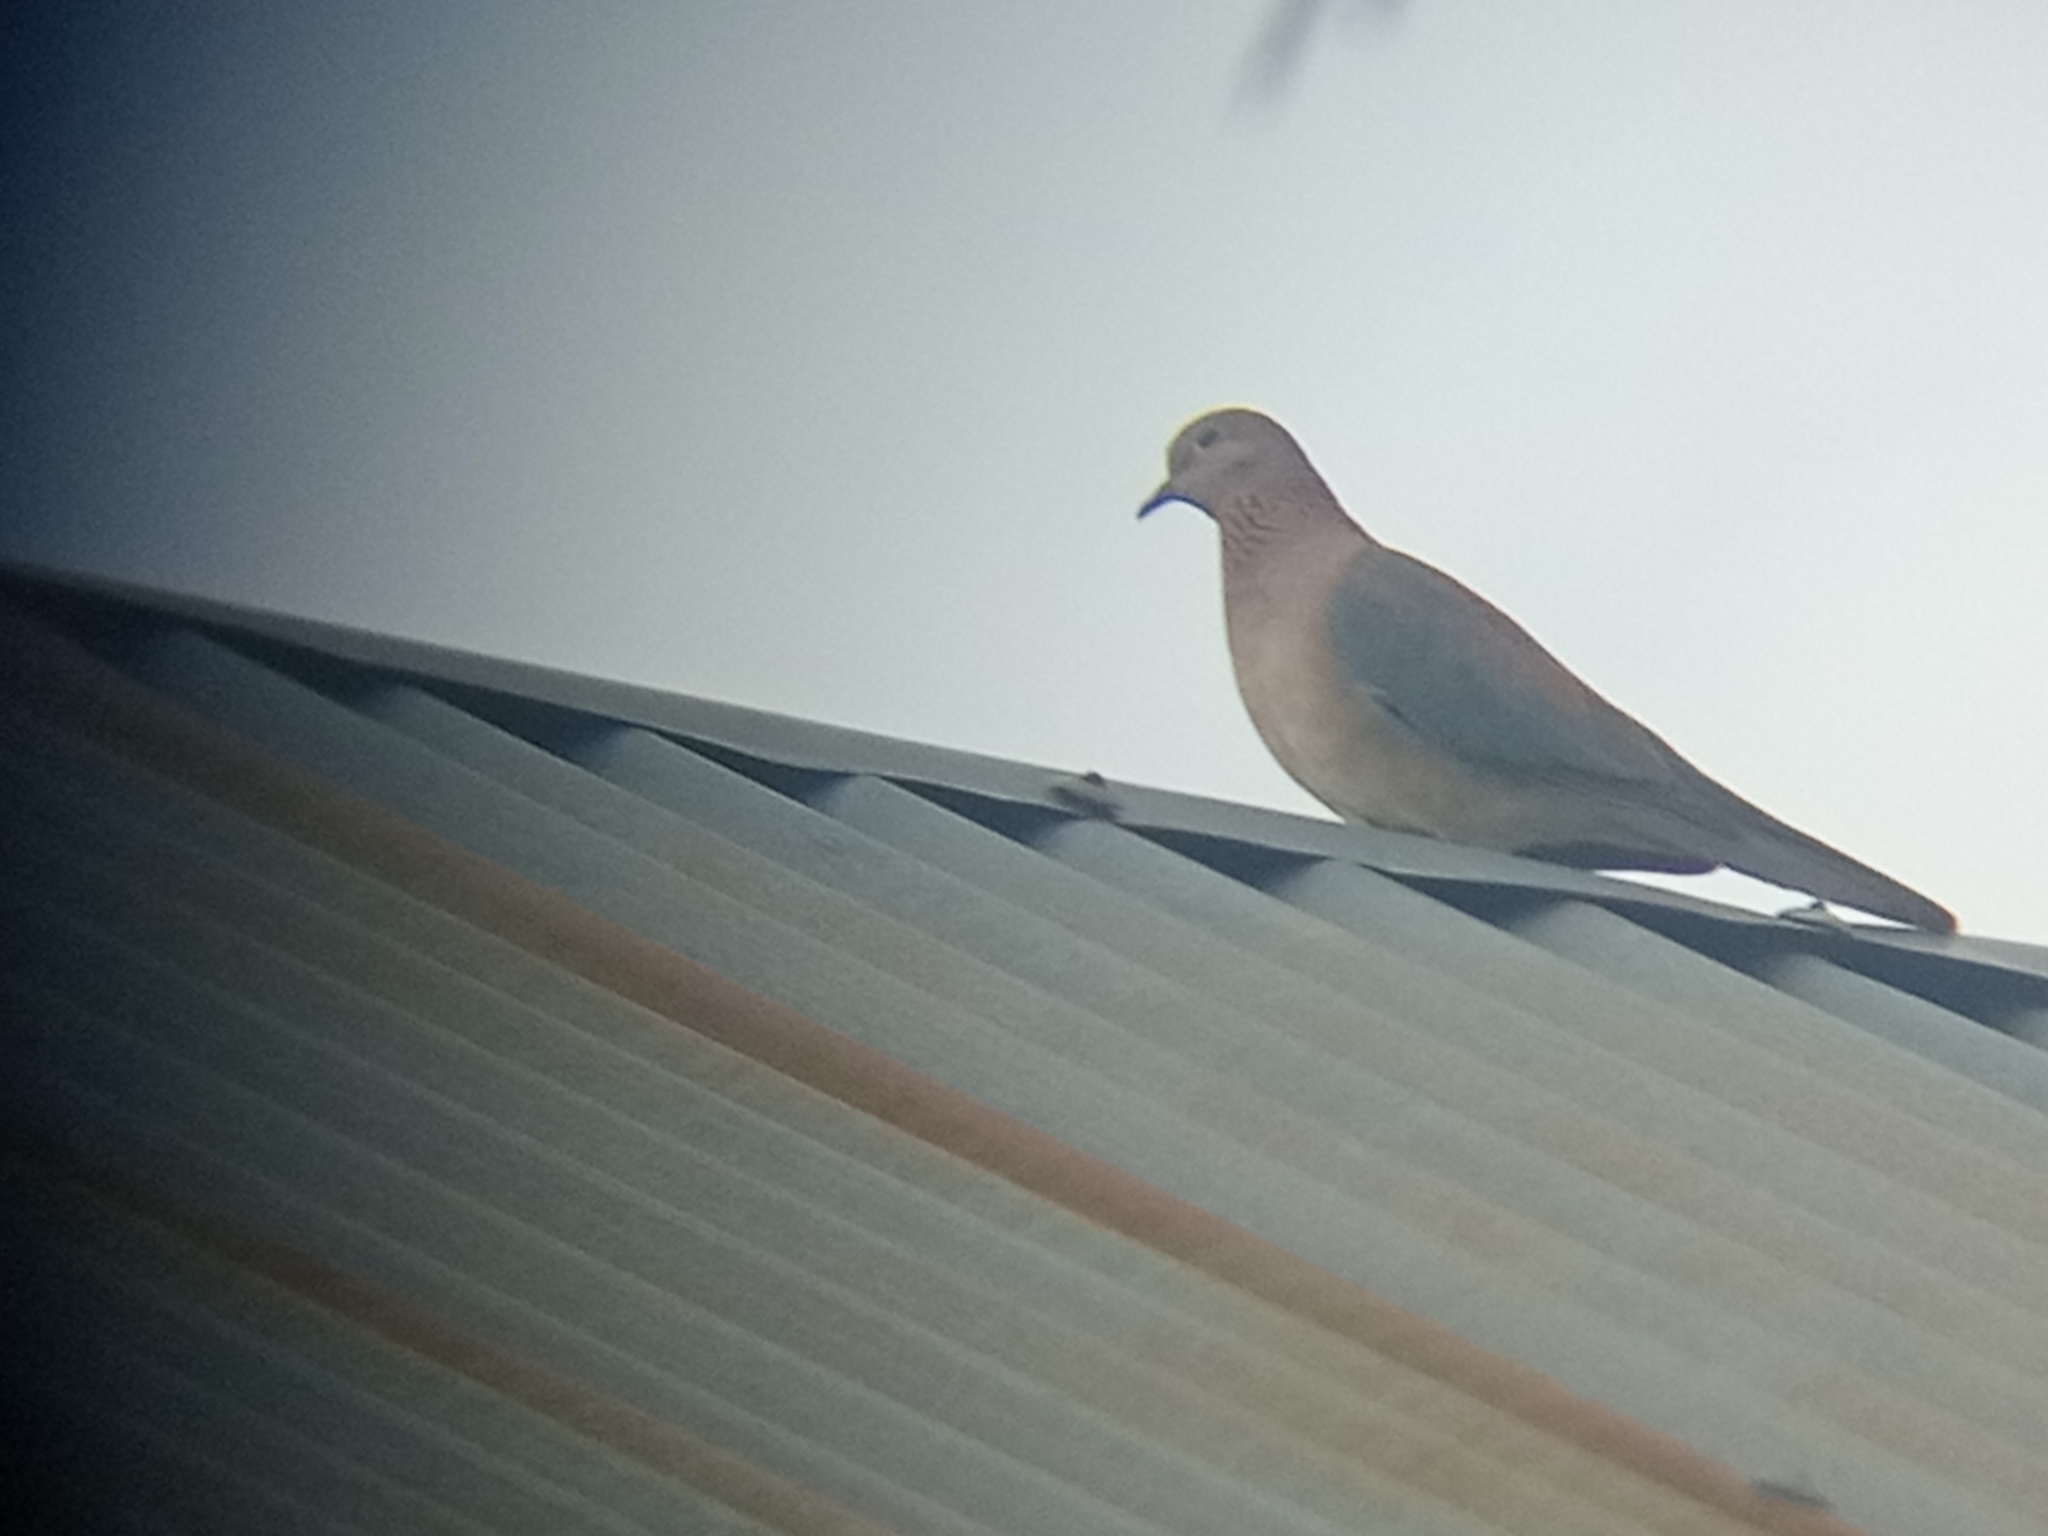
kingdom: Animalia
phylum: Chordata
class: Aves
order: Columbiformes
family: Columbidae
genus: Spilopelia
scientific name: Spilopelia senegalensis
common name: Laughing dove
